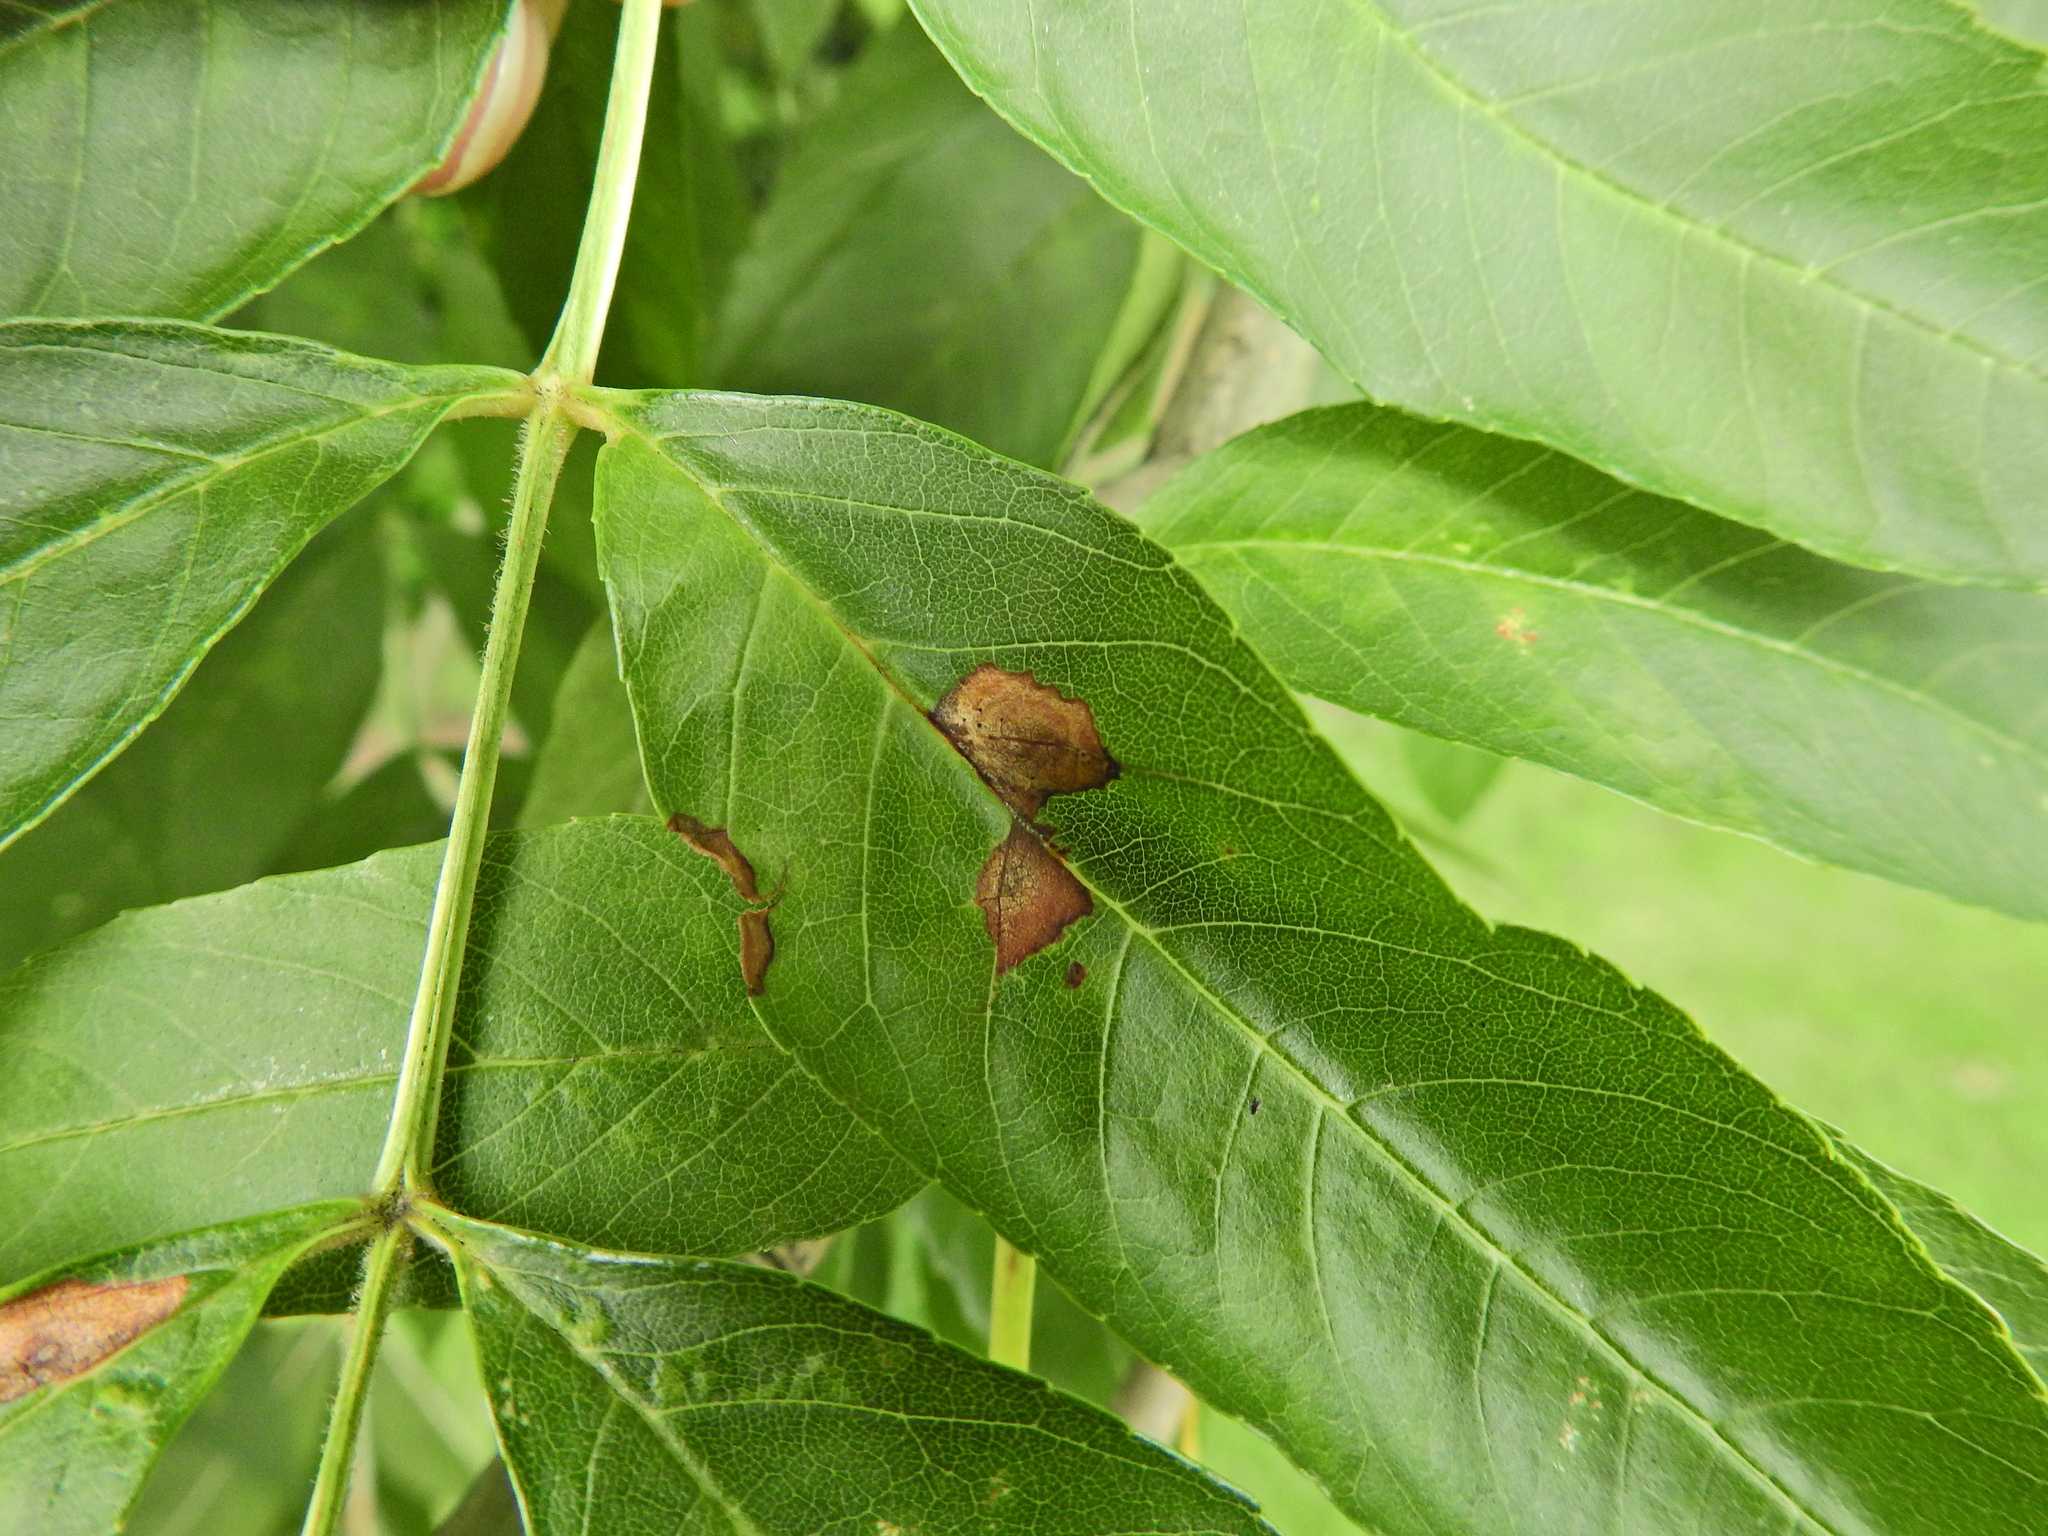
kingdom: Animalia
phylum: Arthropoda
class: Insecta
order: Diptera
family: Cecidomyiidae
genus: Dasineura
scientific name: Dasineura fraxinea
